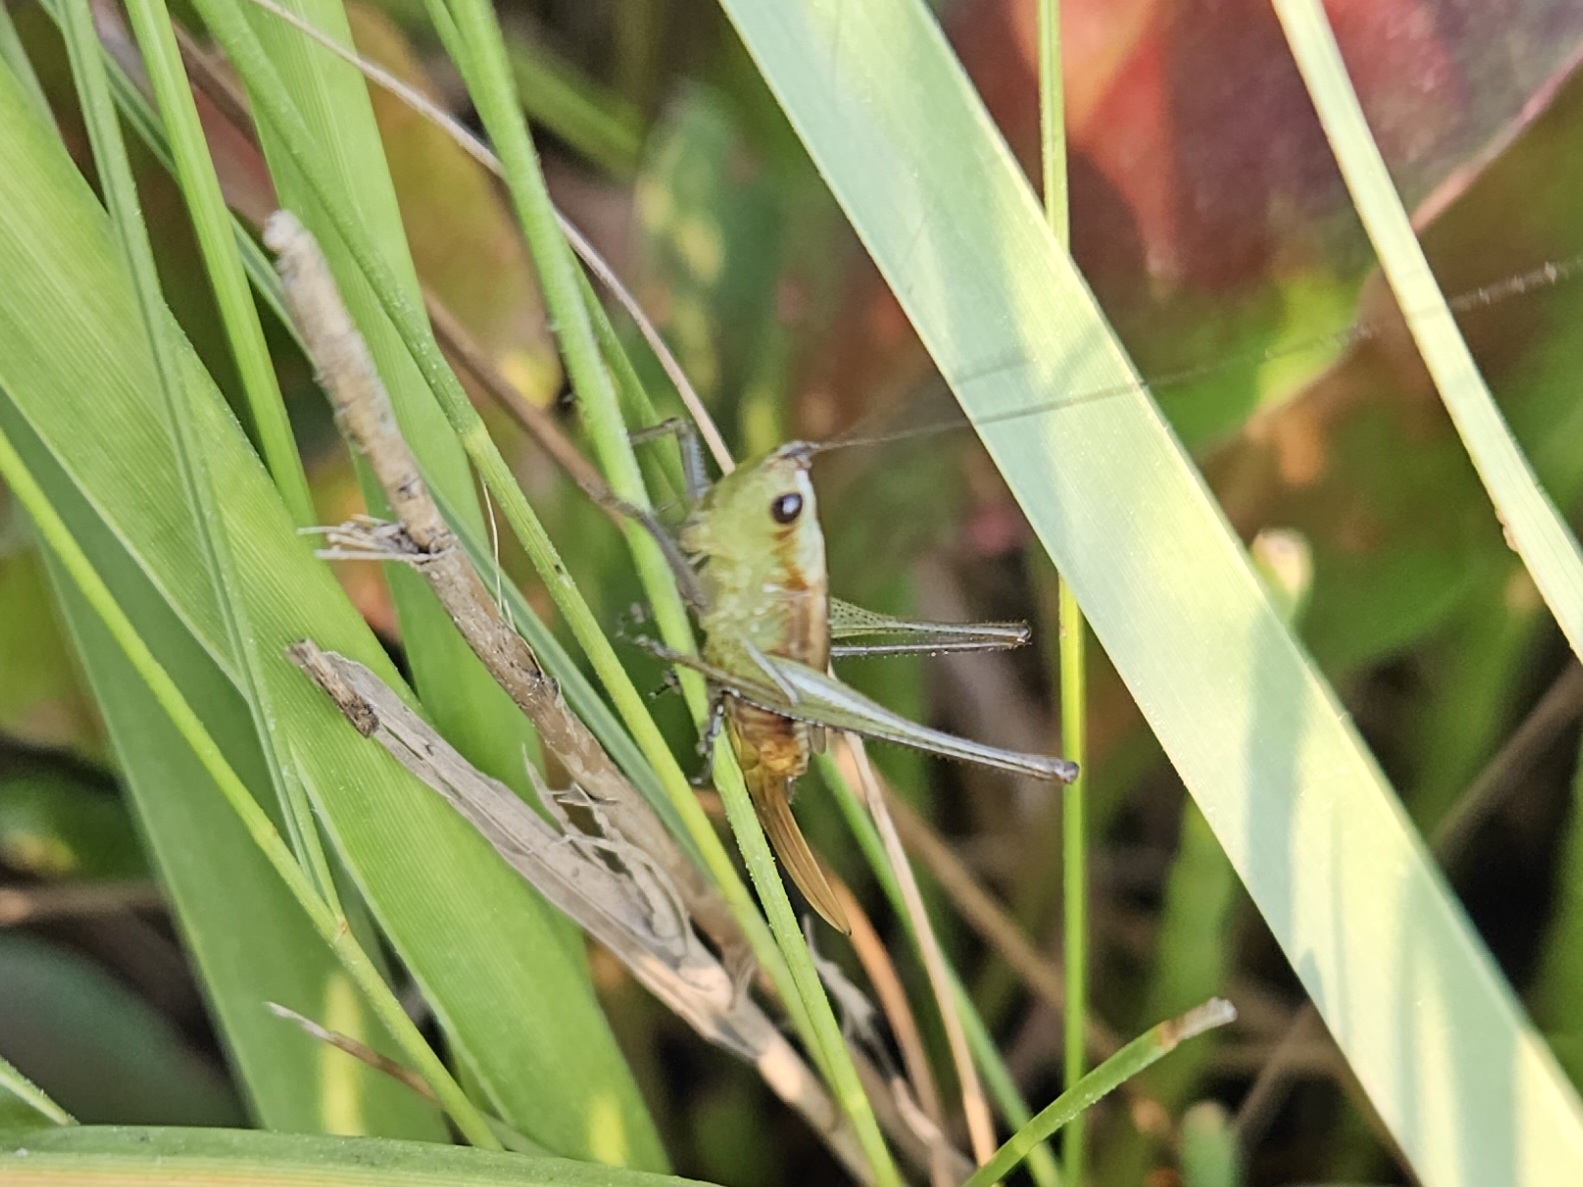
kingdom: Animalia
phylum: Arthropoda
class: Insecta
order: Orthoptera
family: Tettigoniidae
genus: Conocephalus
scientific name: Conocephalus spartinae
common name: Salt marsh meadow katydid
